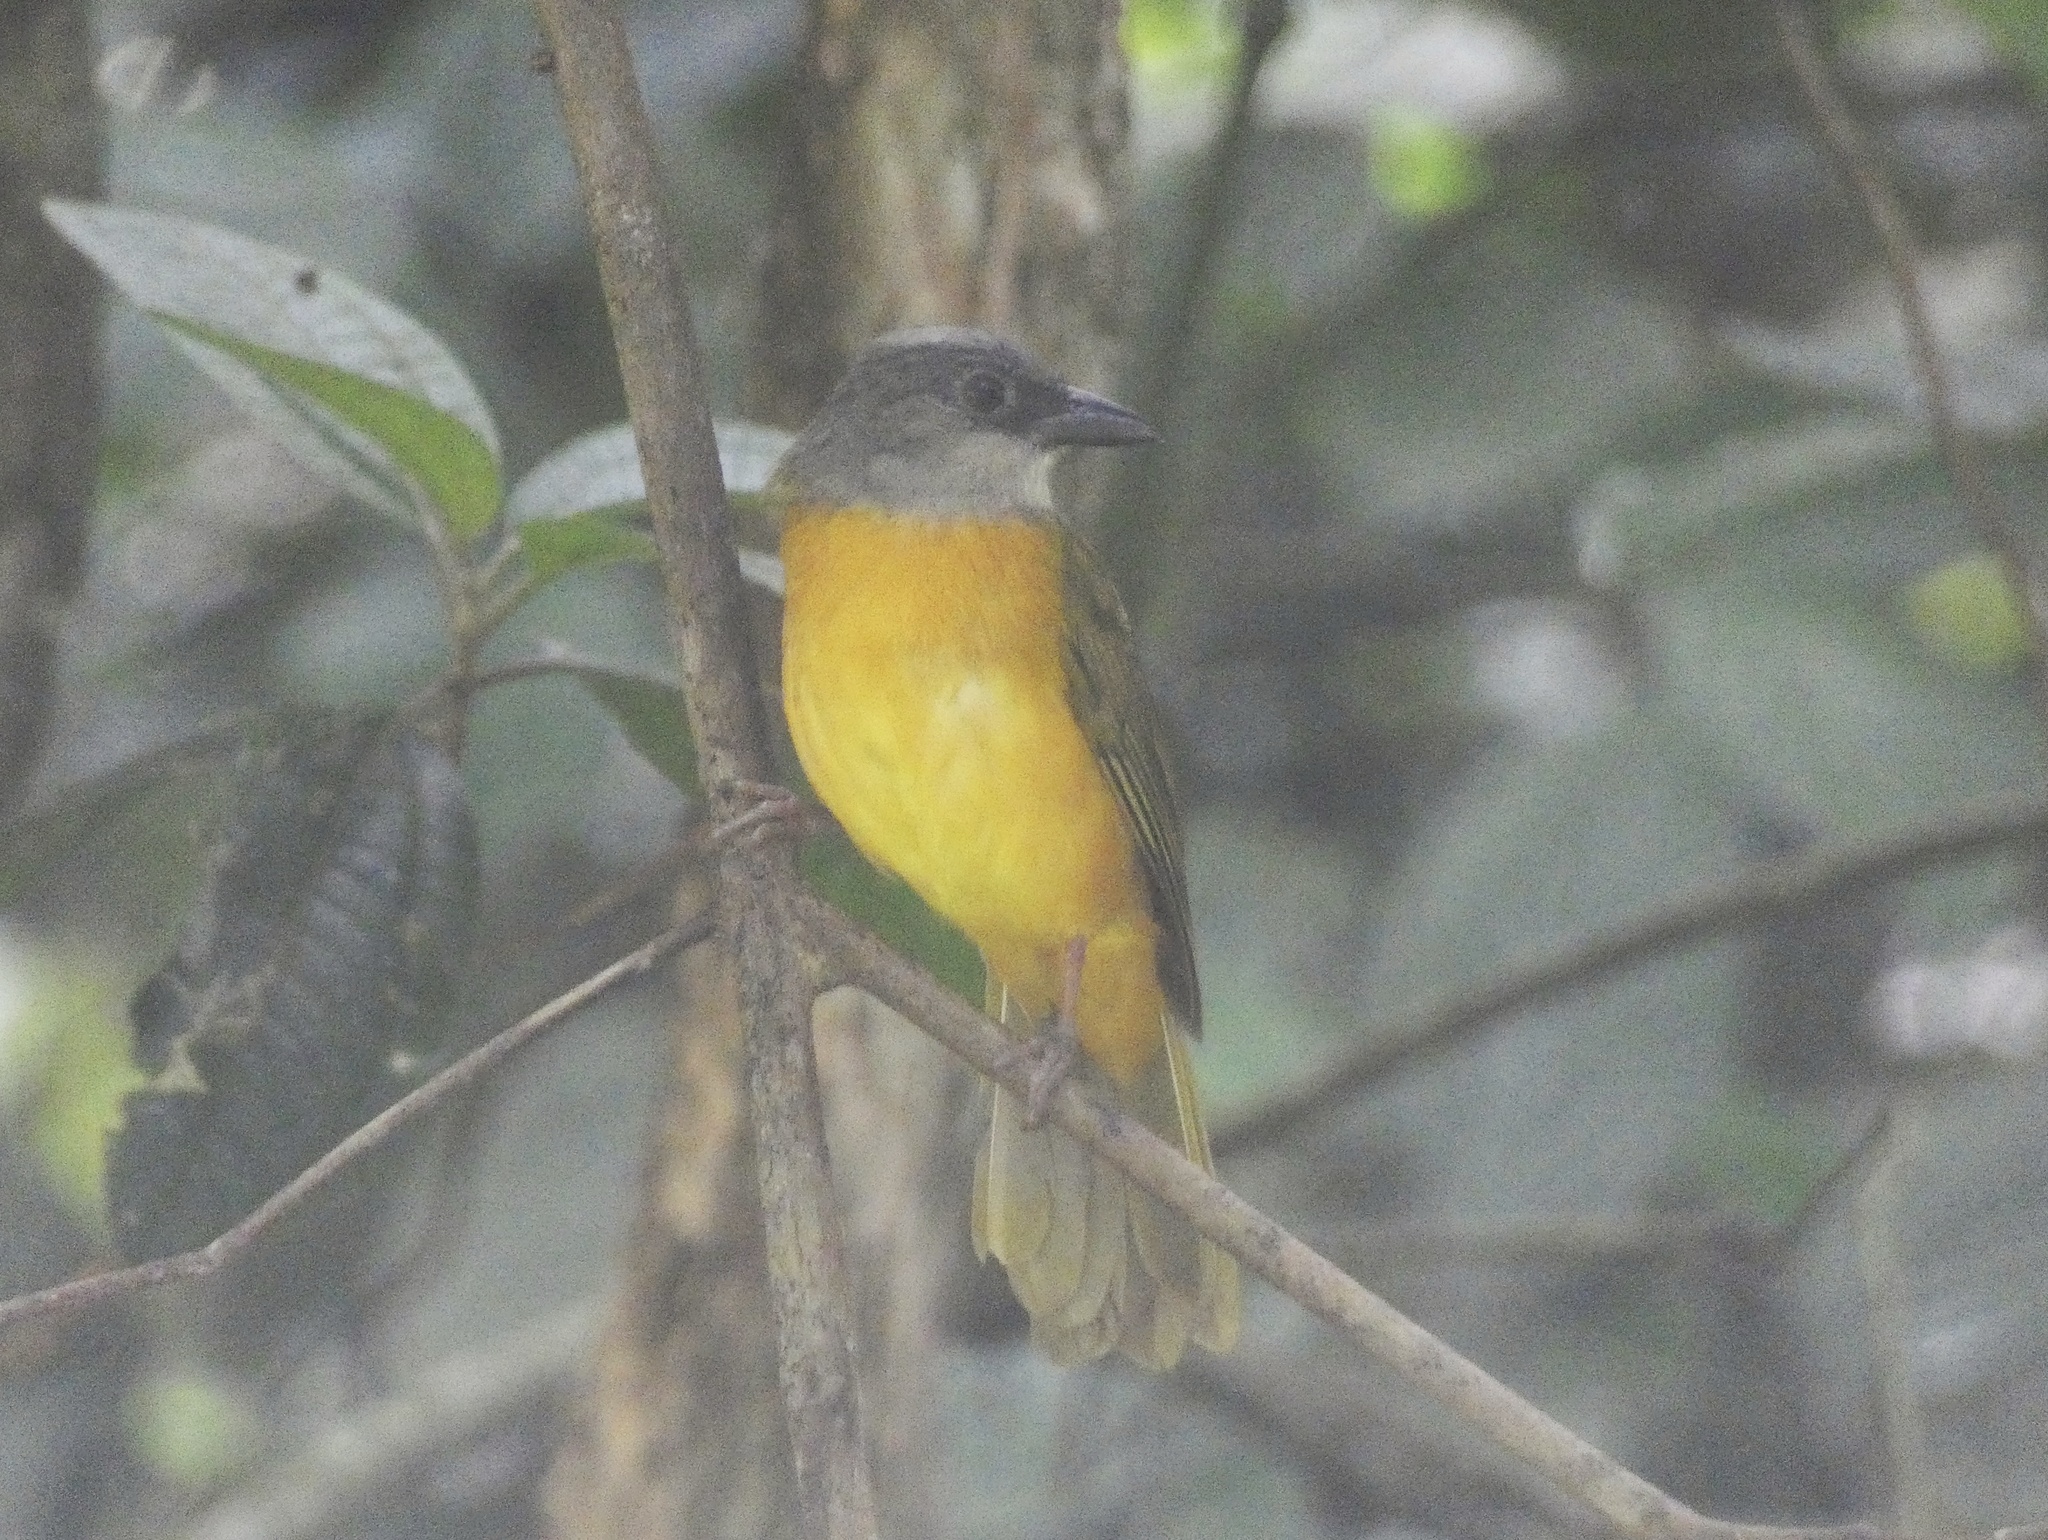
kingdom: Animalia
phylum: Chordata
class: Aves
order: Passeriformes
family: Thraupidae
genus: Eucometis
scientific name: Eucometis penicillata
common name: Grey-headed tanager
